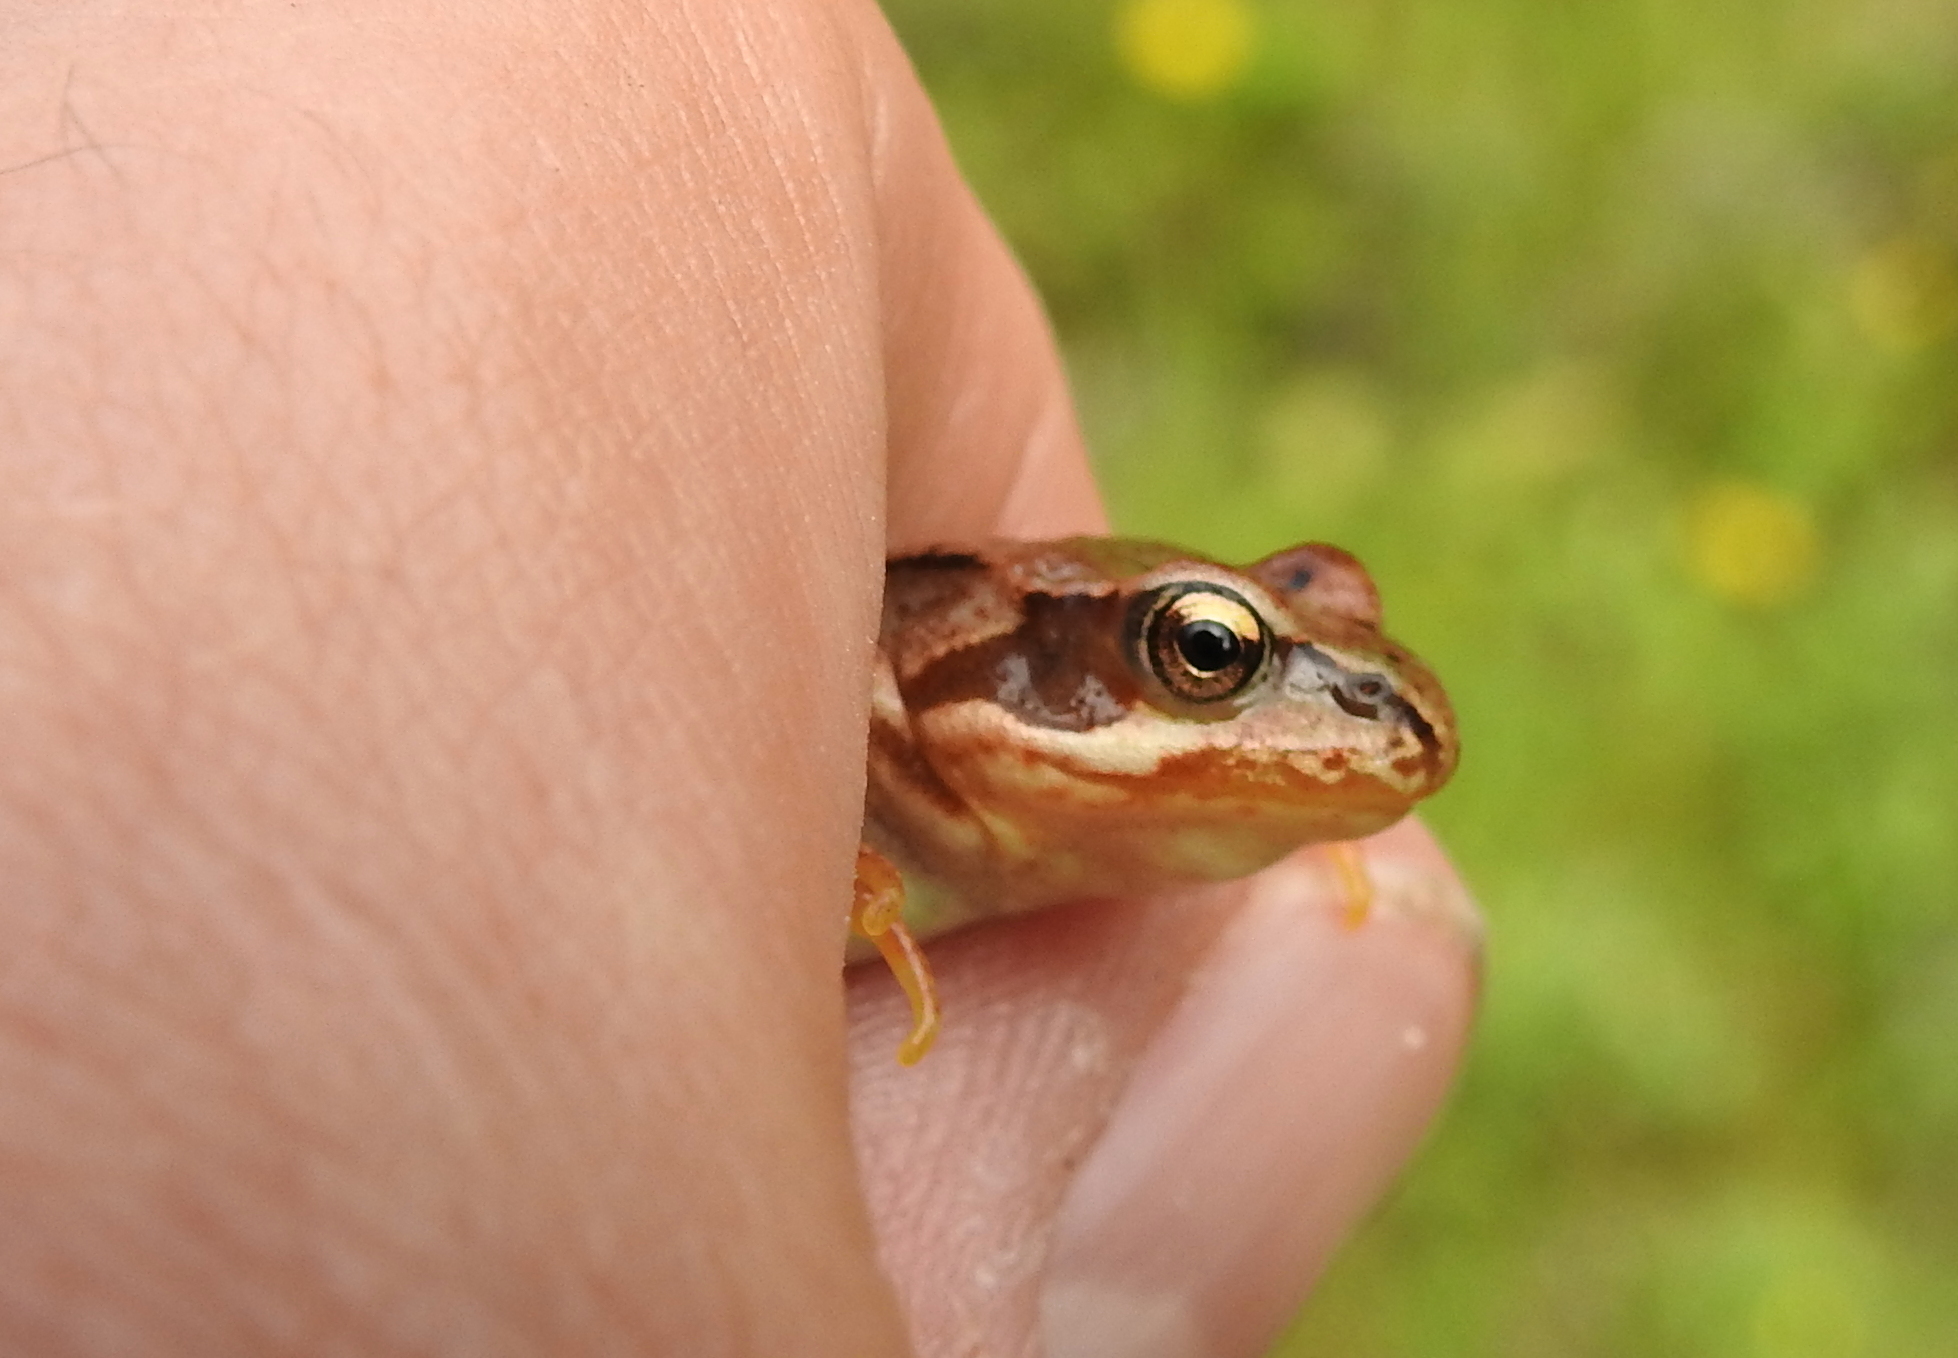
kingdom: Animalia
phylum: Chordata
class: Amphibia
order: Anura
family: Ranidae
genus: Rana
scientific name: Rana temporaria
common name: Common frog
